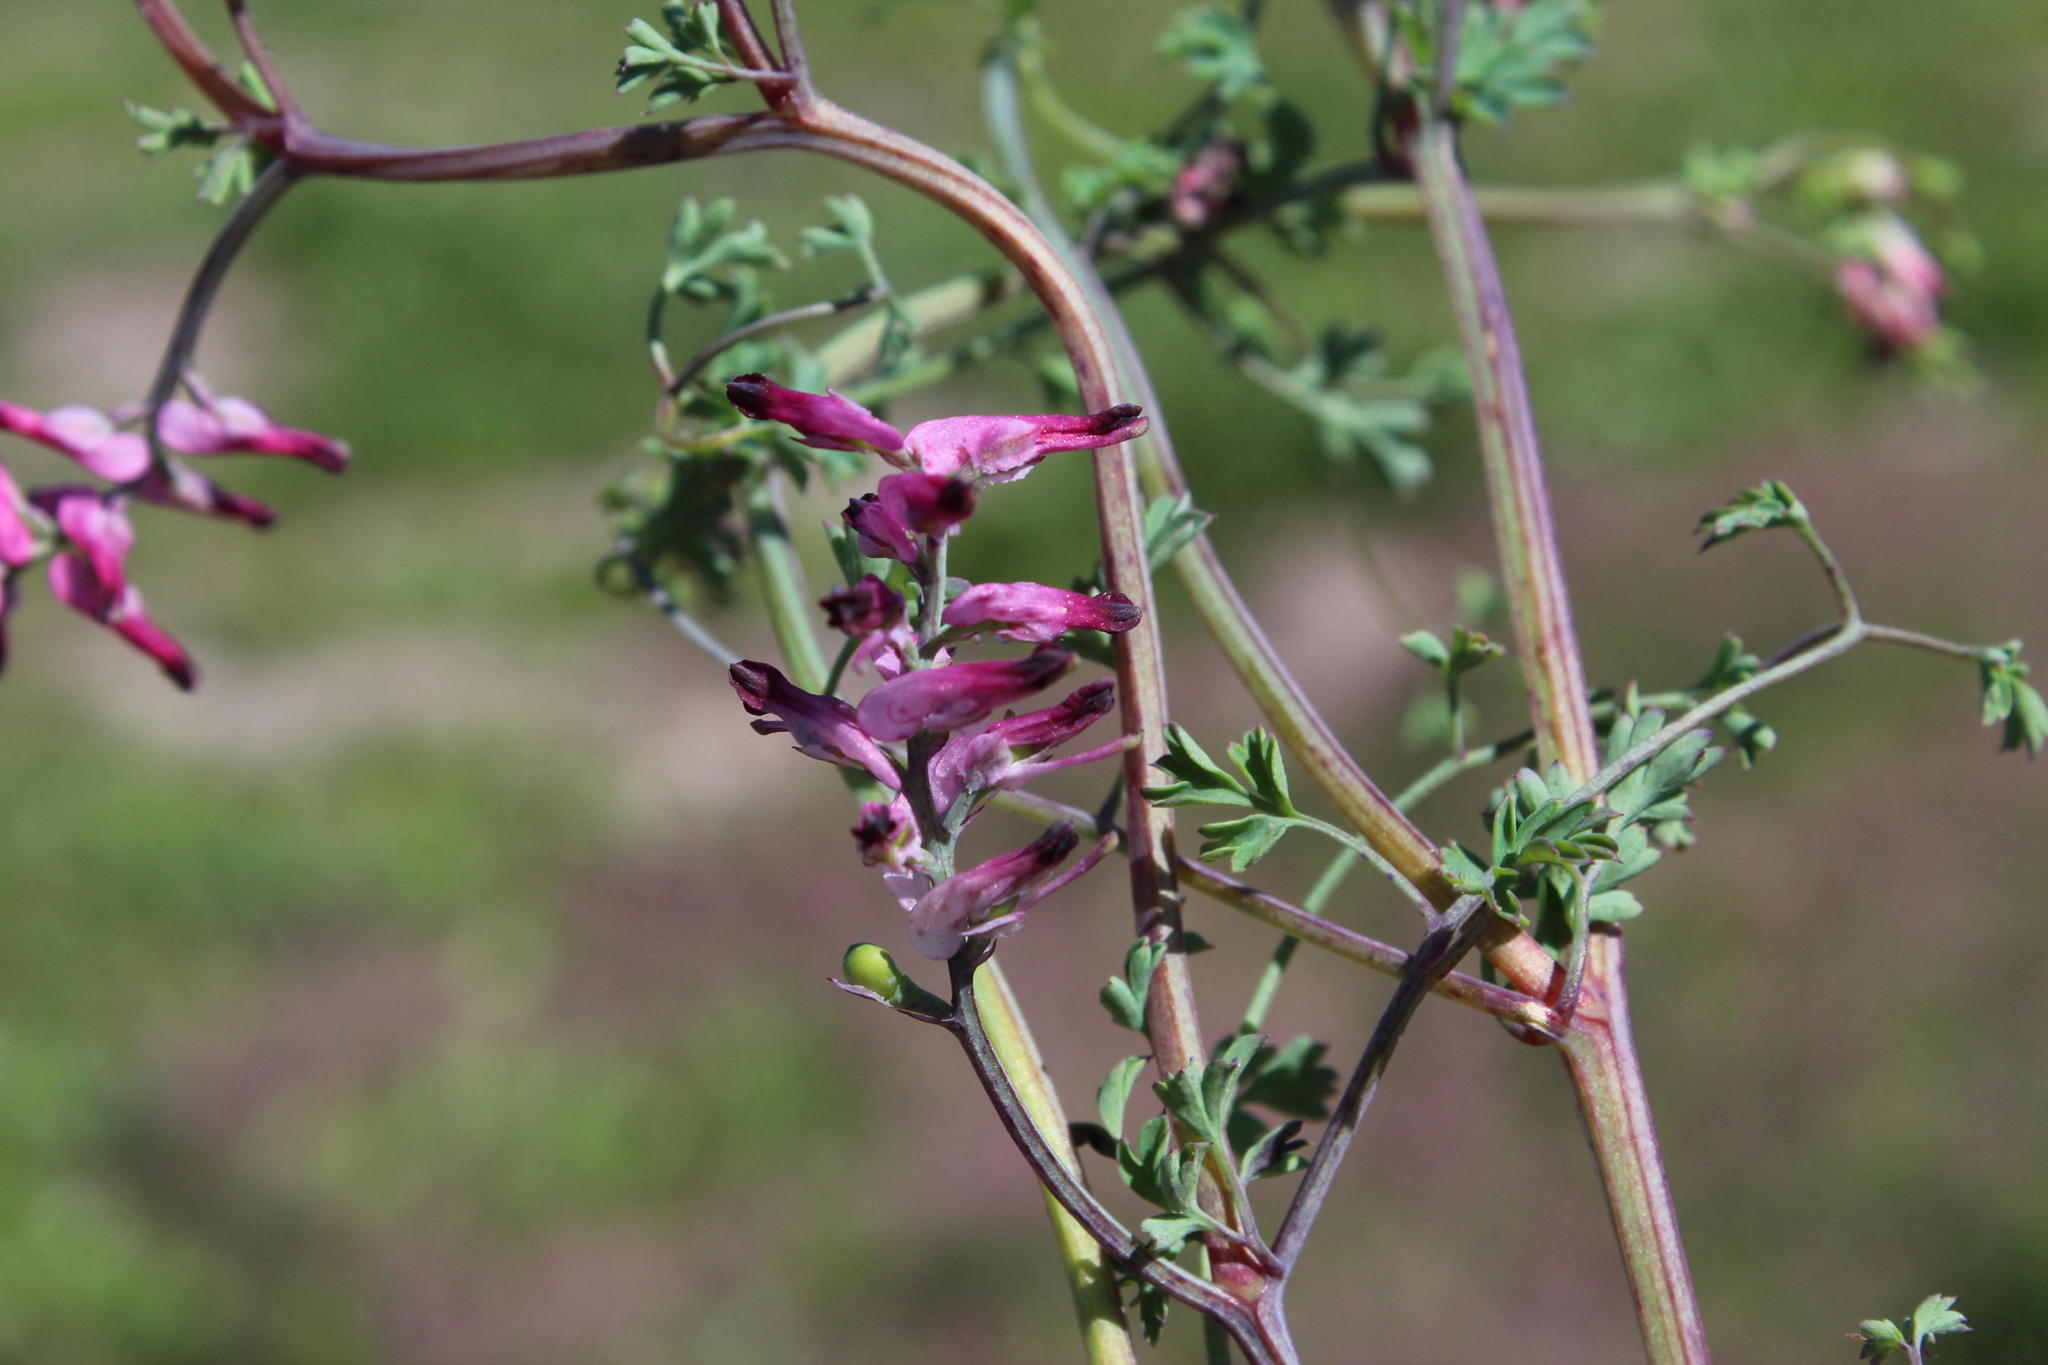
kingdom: Plantae
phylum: Tracheophyta
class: Magnoliopsida
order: Ranunculales
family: Papaveraceae
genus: Fumaria
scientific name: Fumaria muralis
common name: Common ramping-fumitory
